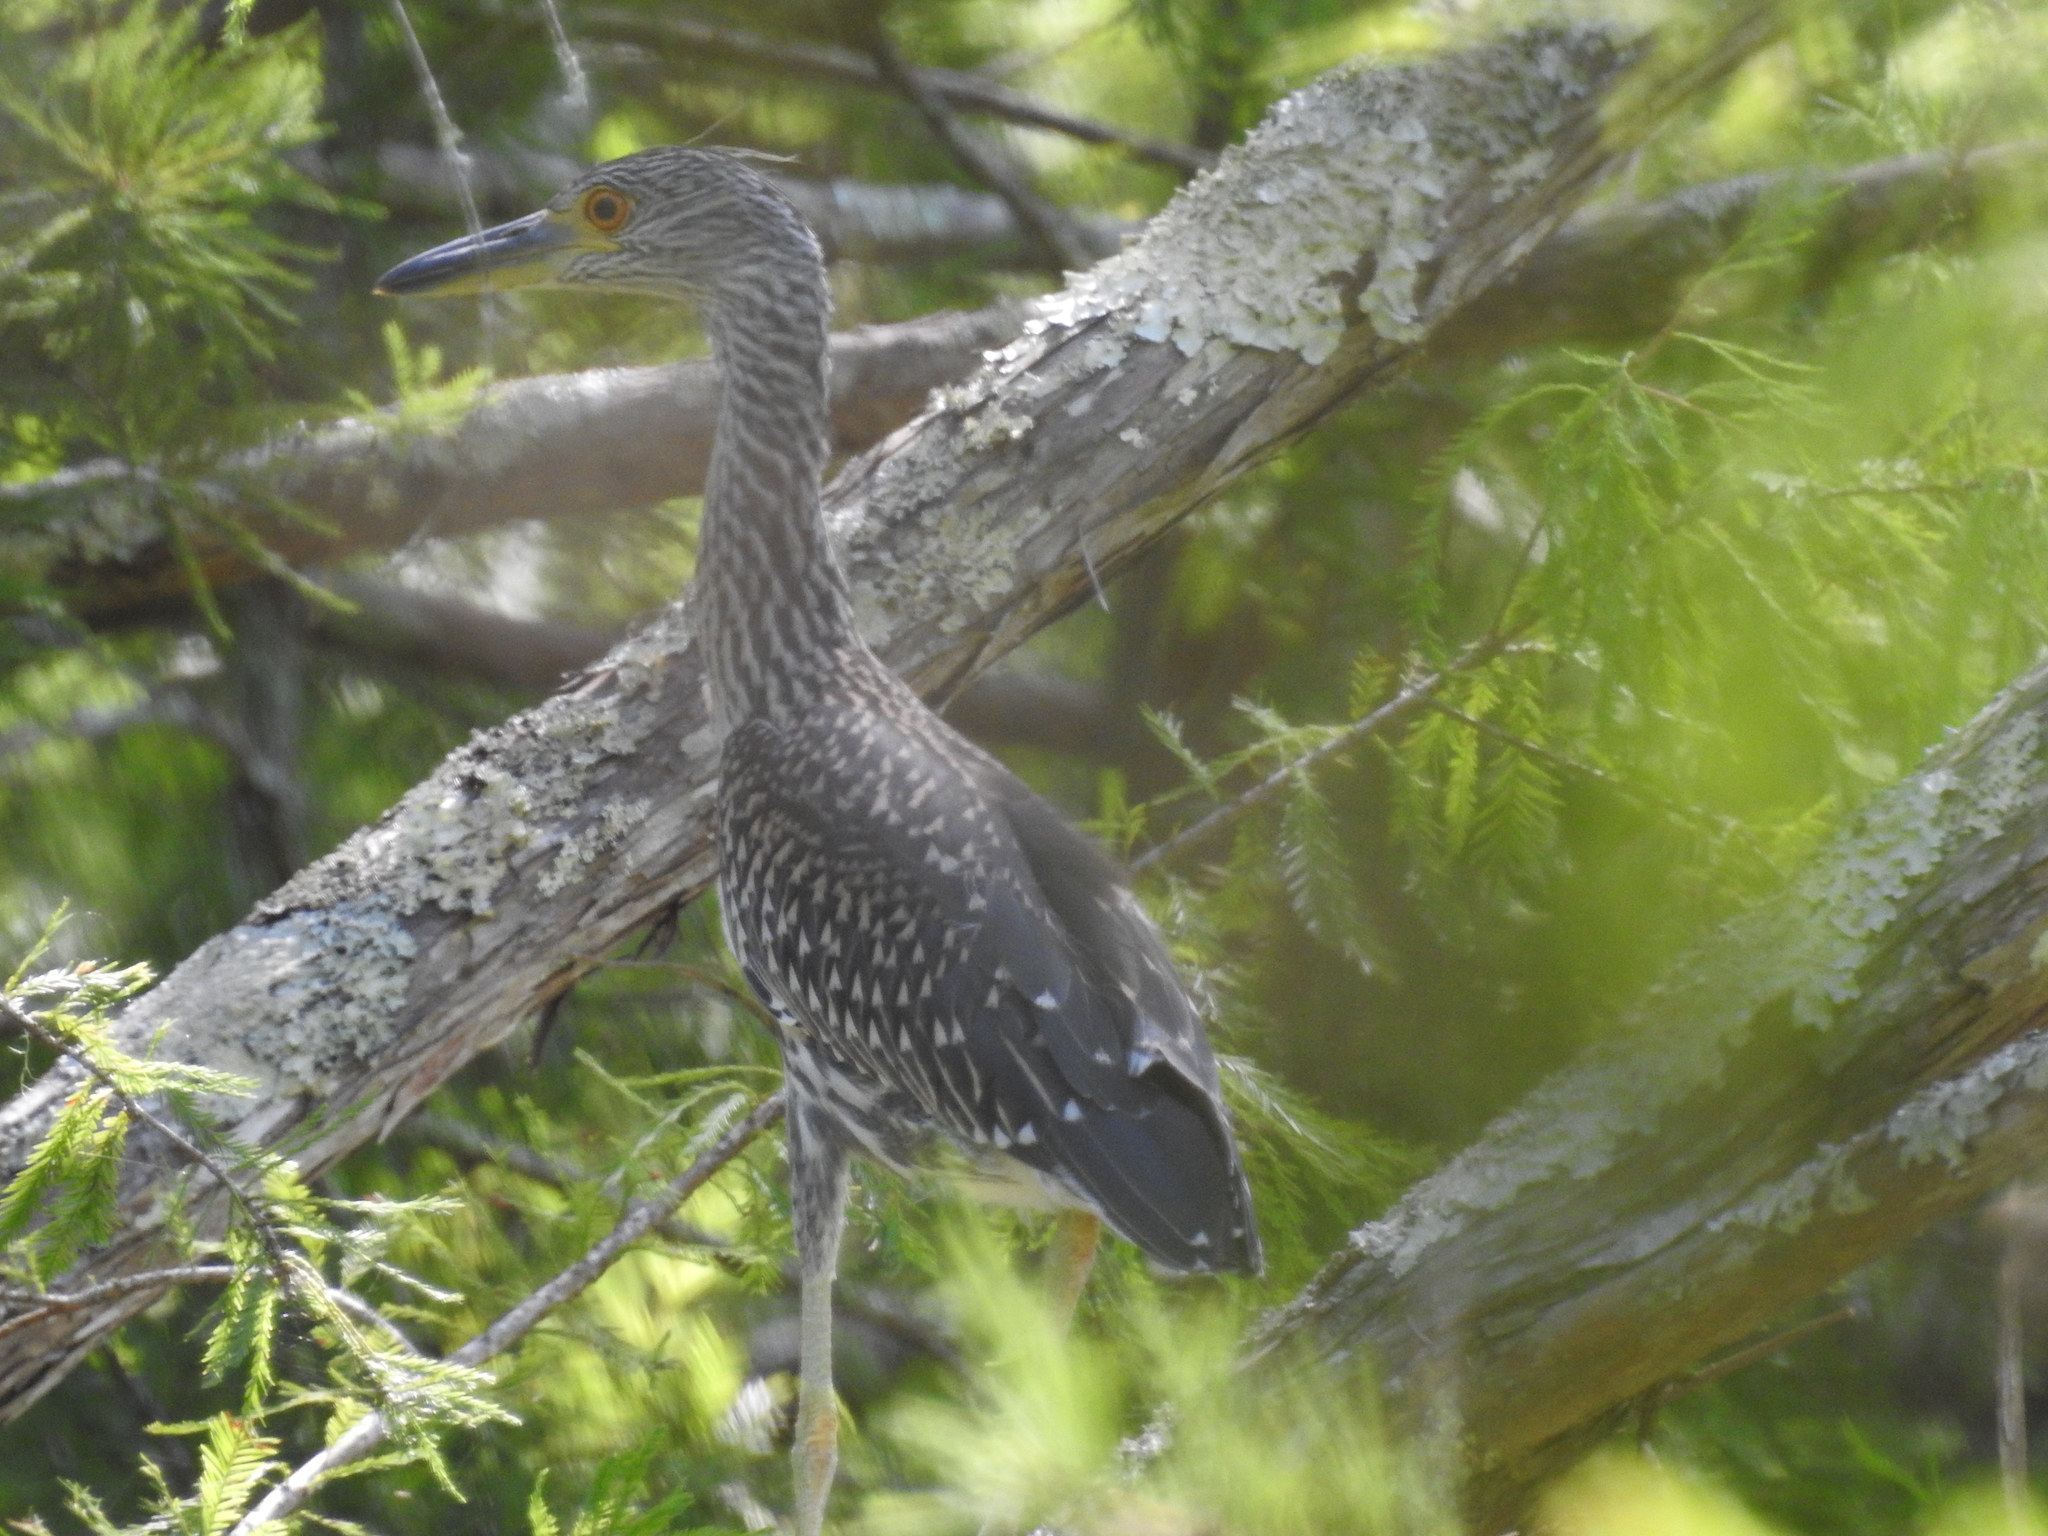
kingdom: Animalia
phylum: Chordata
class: Aves
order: Pelecaniformes
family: Ardeidae
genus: Nyctanassa
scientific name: Nyctanassa violacea
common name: Yellow-crowned night heron
